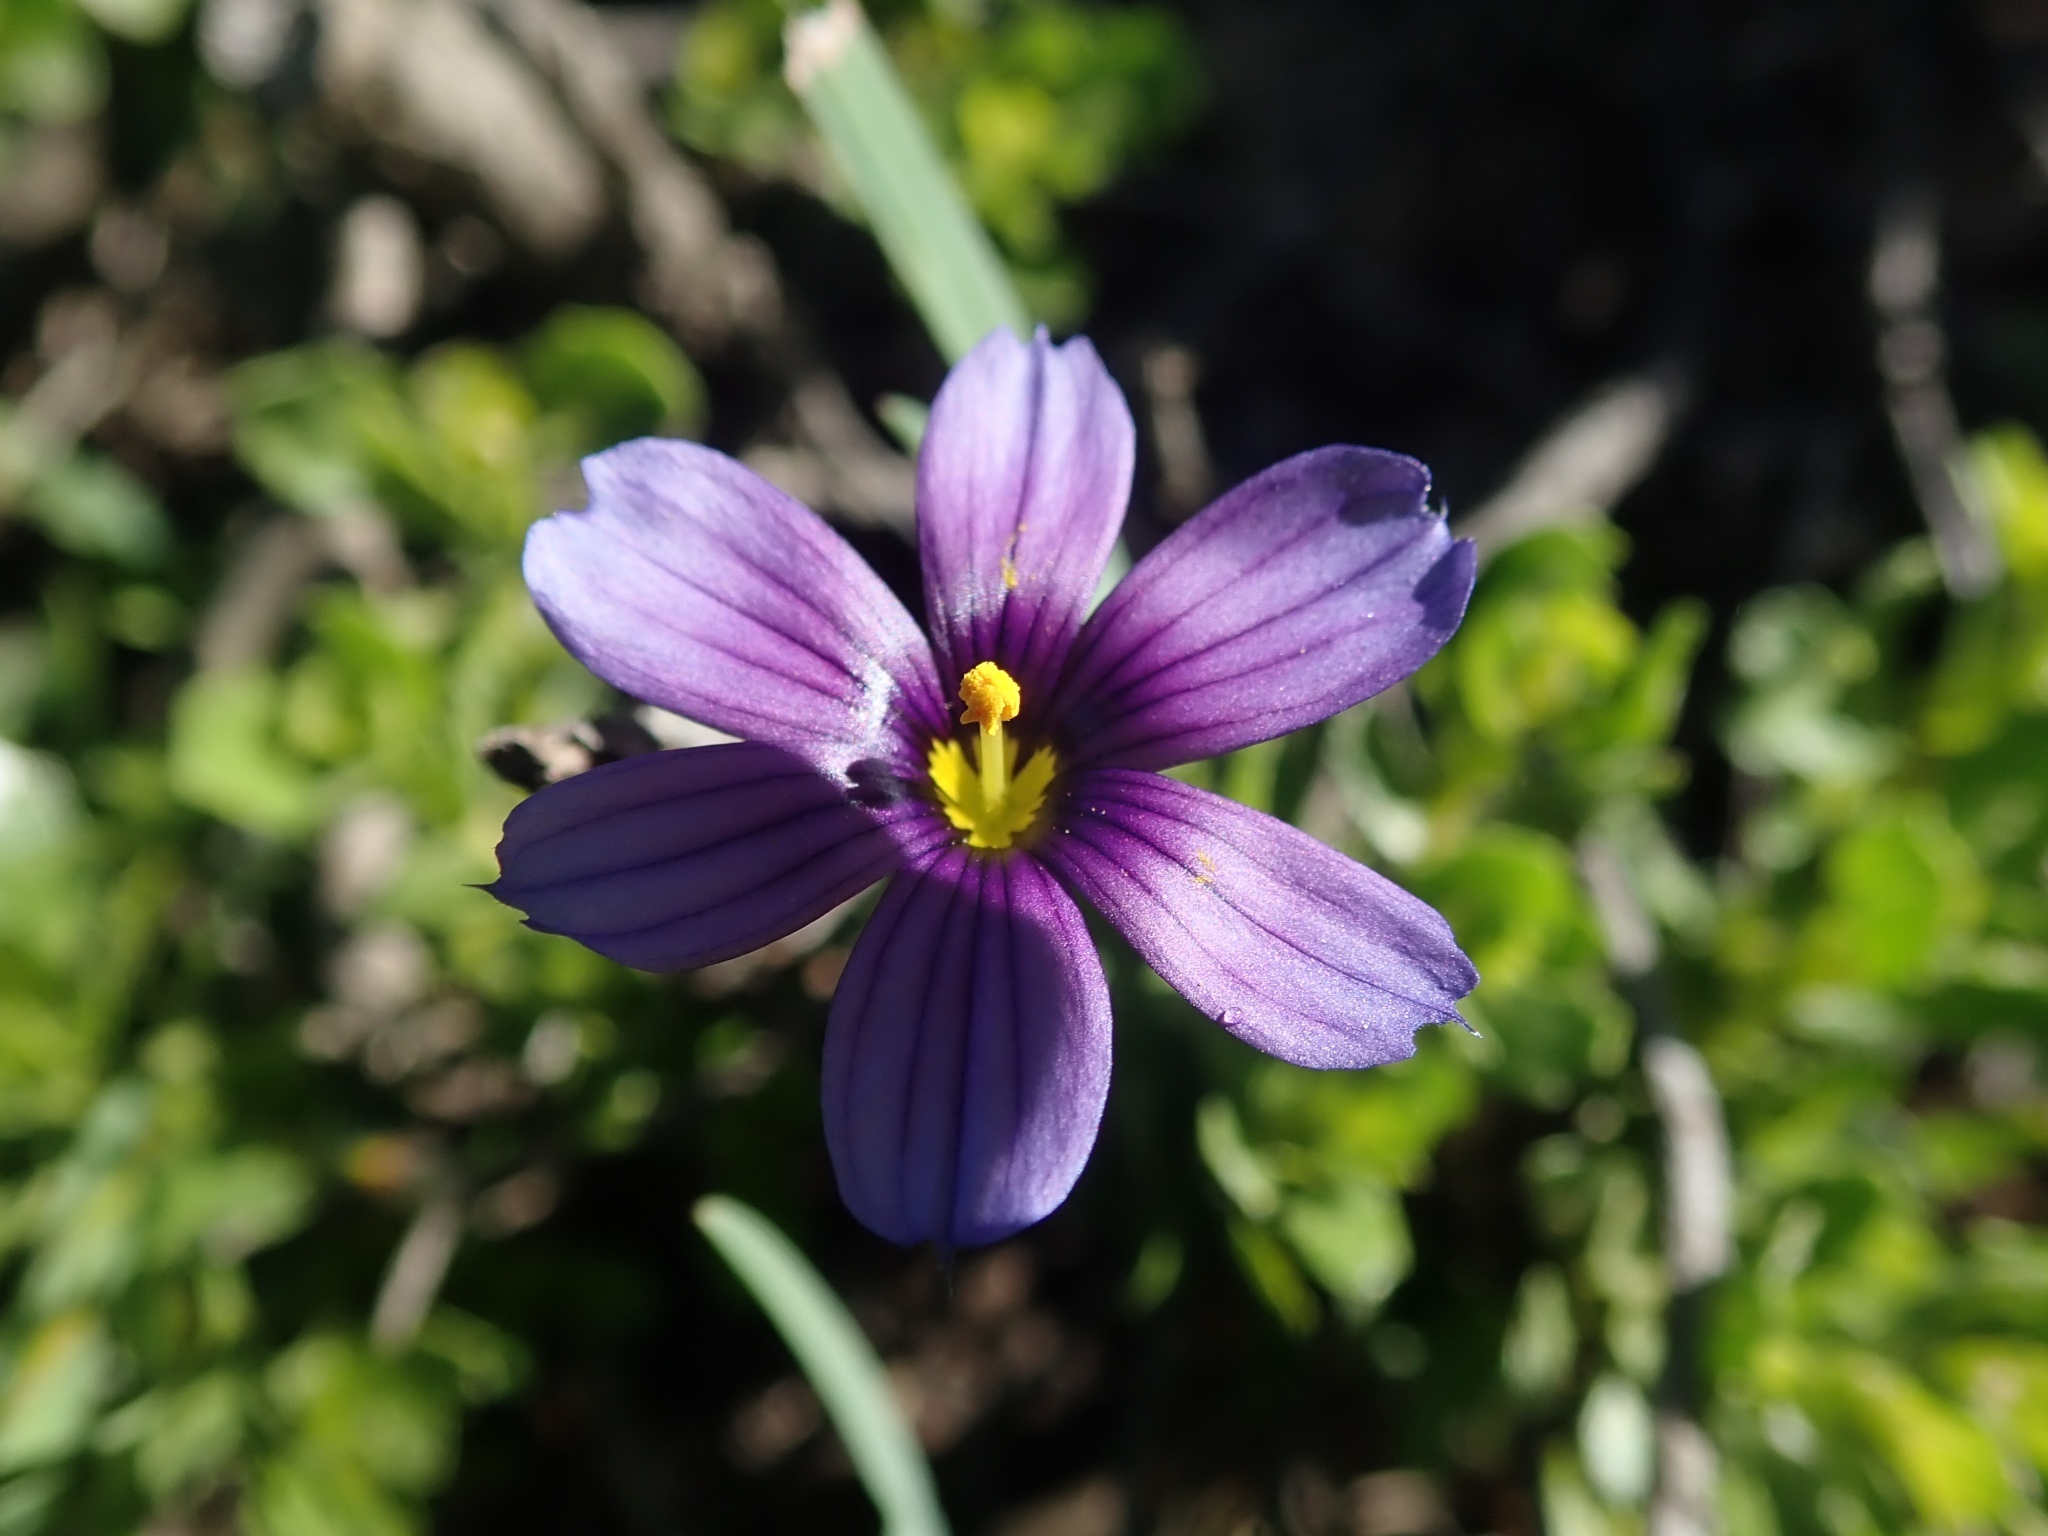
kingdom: Plantae
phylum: Tracheophyta
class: Liliopsida
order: Asparagales
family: Iridaceae
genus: Sisyrinchium
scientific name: Sisyrinchium bellum
